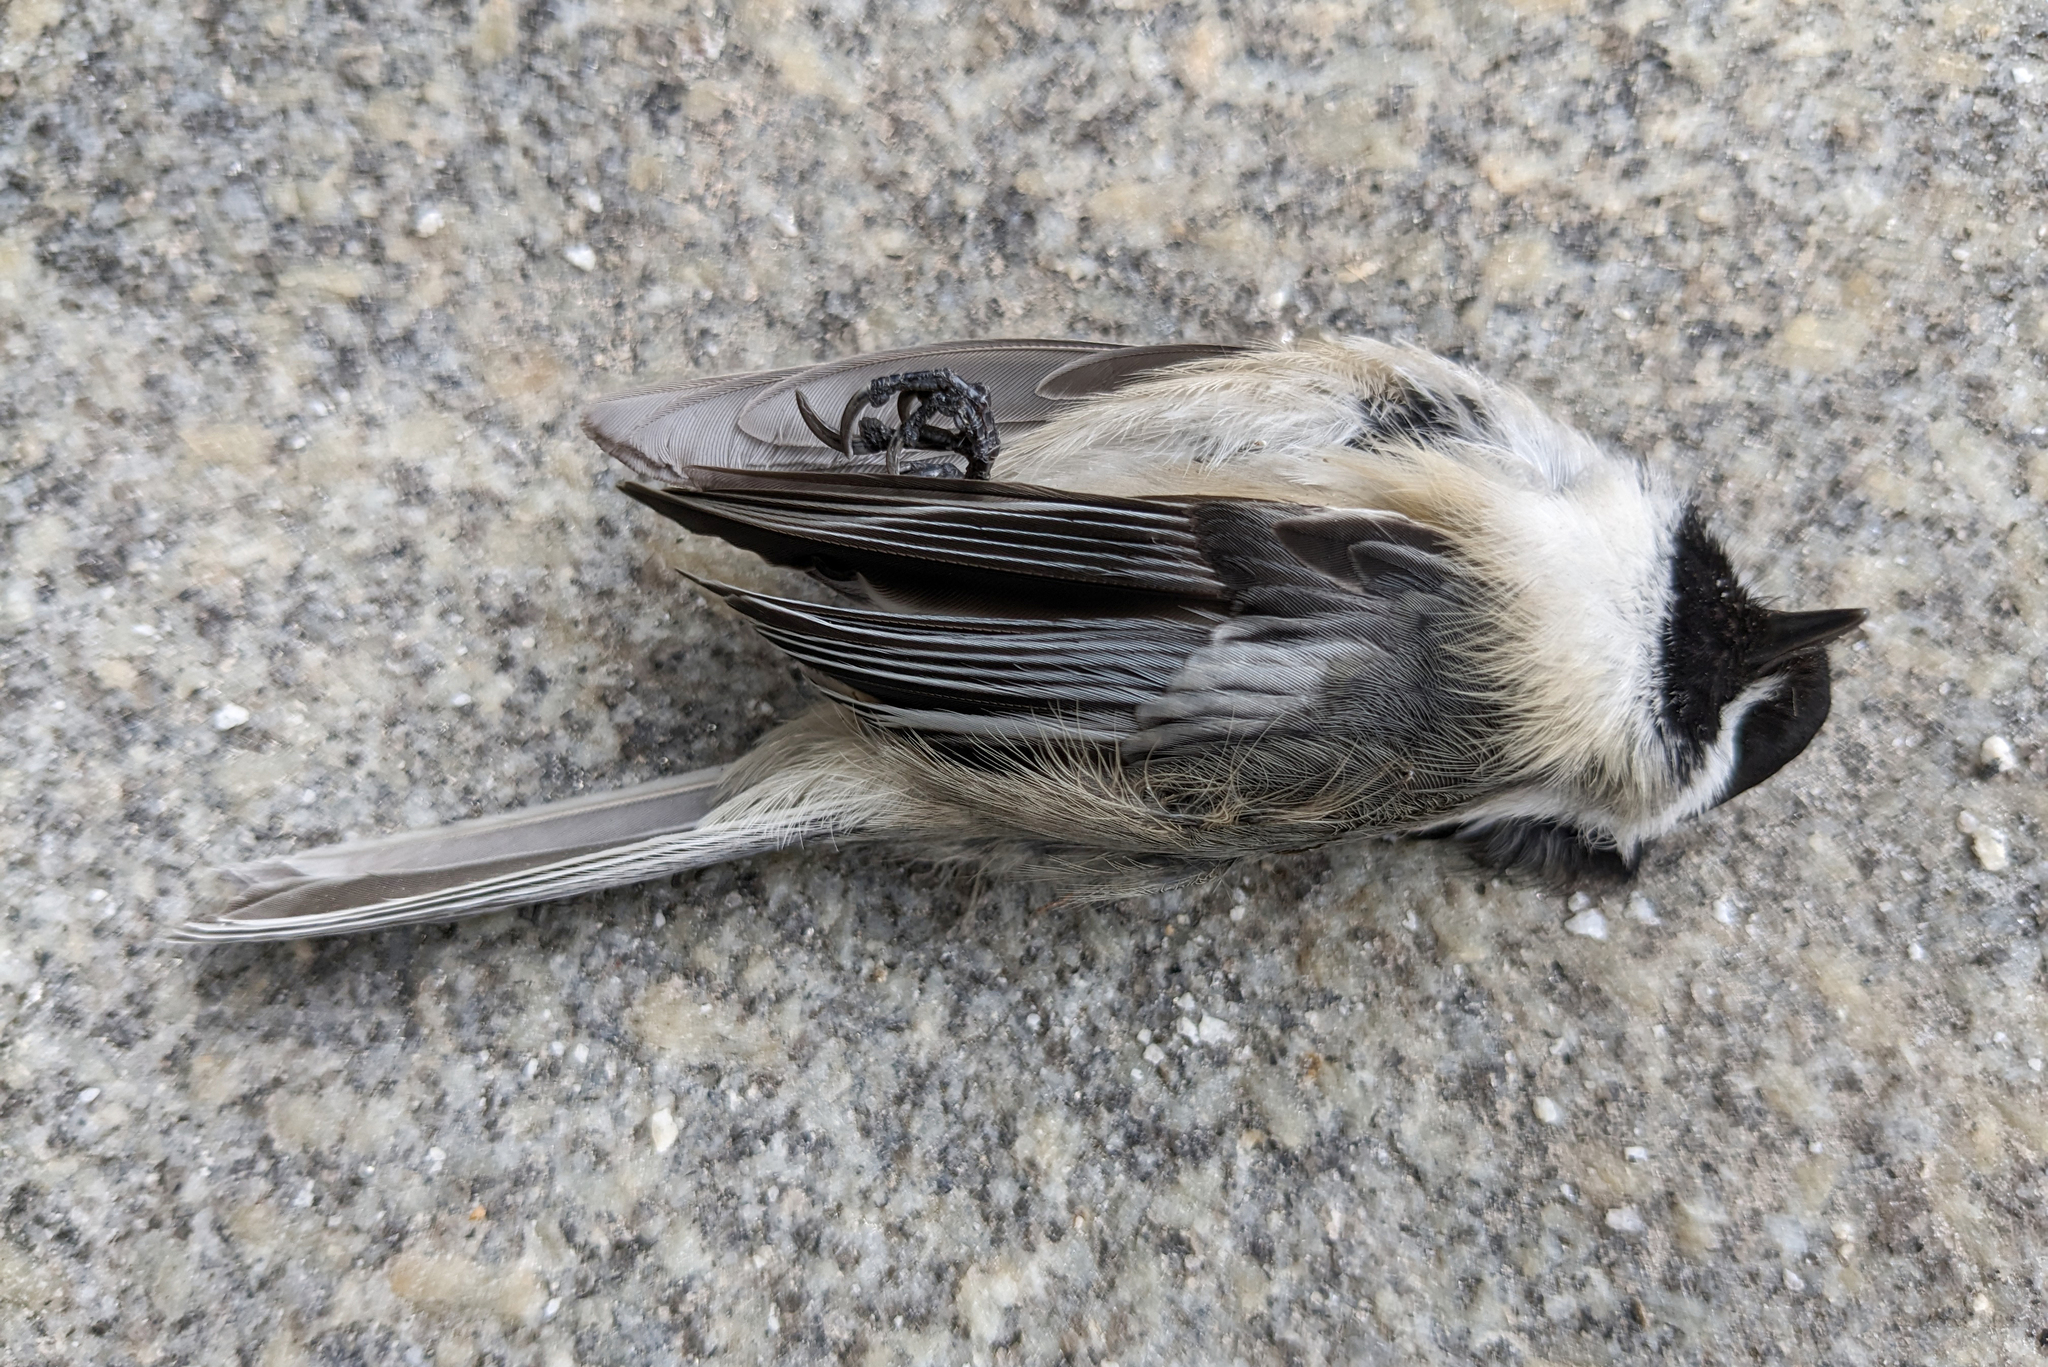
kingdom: Animalia
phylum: Chordata
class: Aves
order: Passeriformes
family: Paridae
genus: Poecile
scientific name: Poecile atricapillus
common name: Black-capped chickadee
